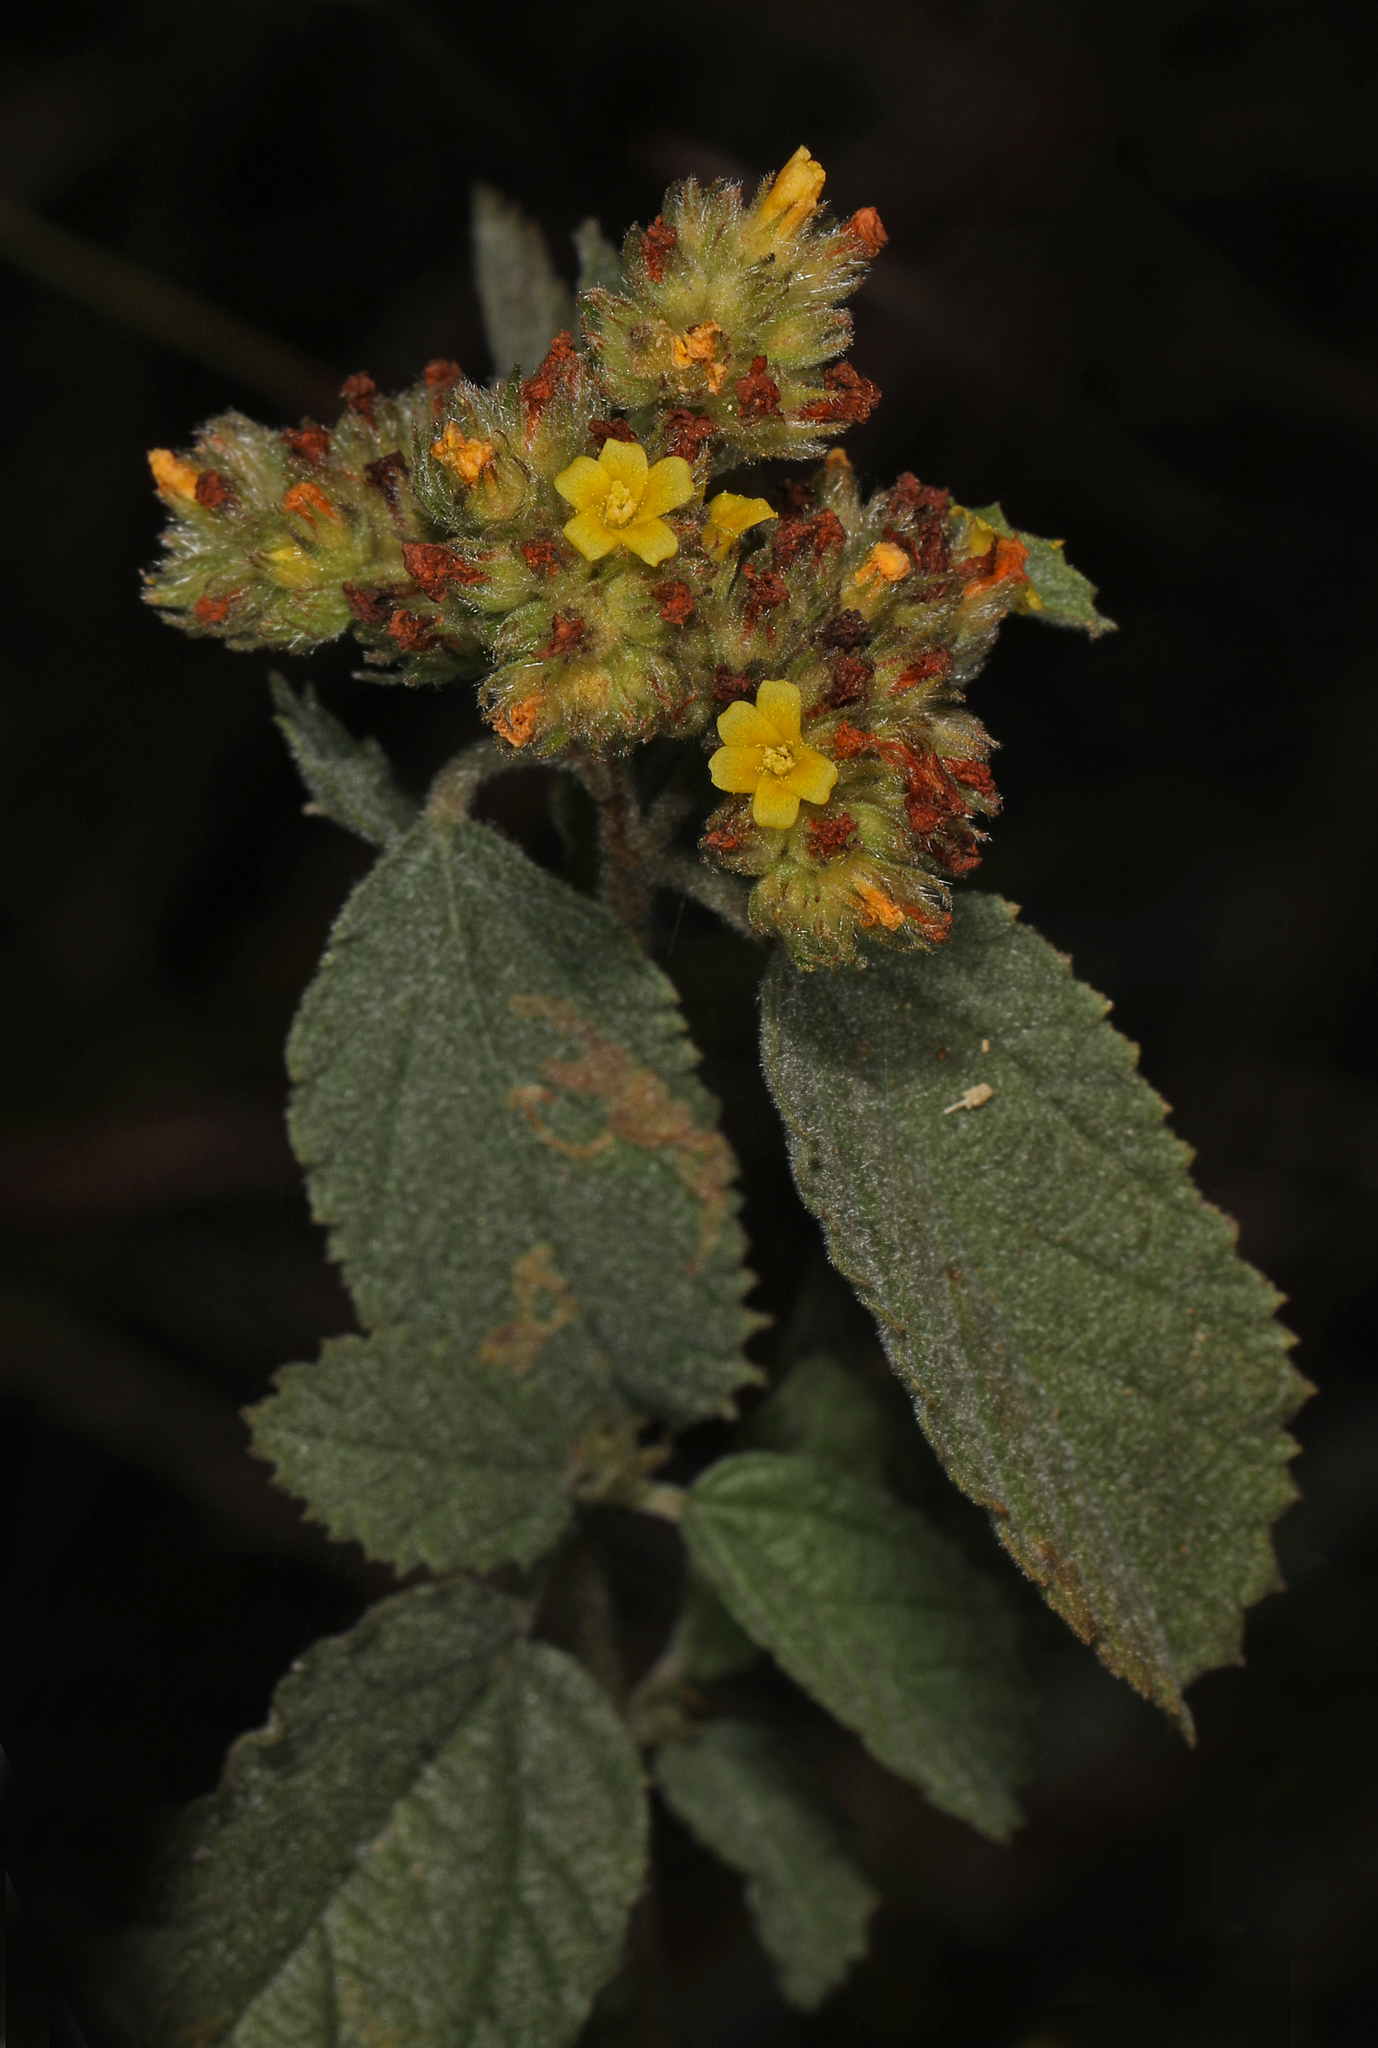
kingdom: Plantae
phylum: Tracheophyta
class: Magnoliopsida
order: Malvales
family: Malvaceae
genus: Waltheria
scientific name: Waltheria indica
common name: Leather-coat
